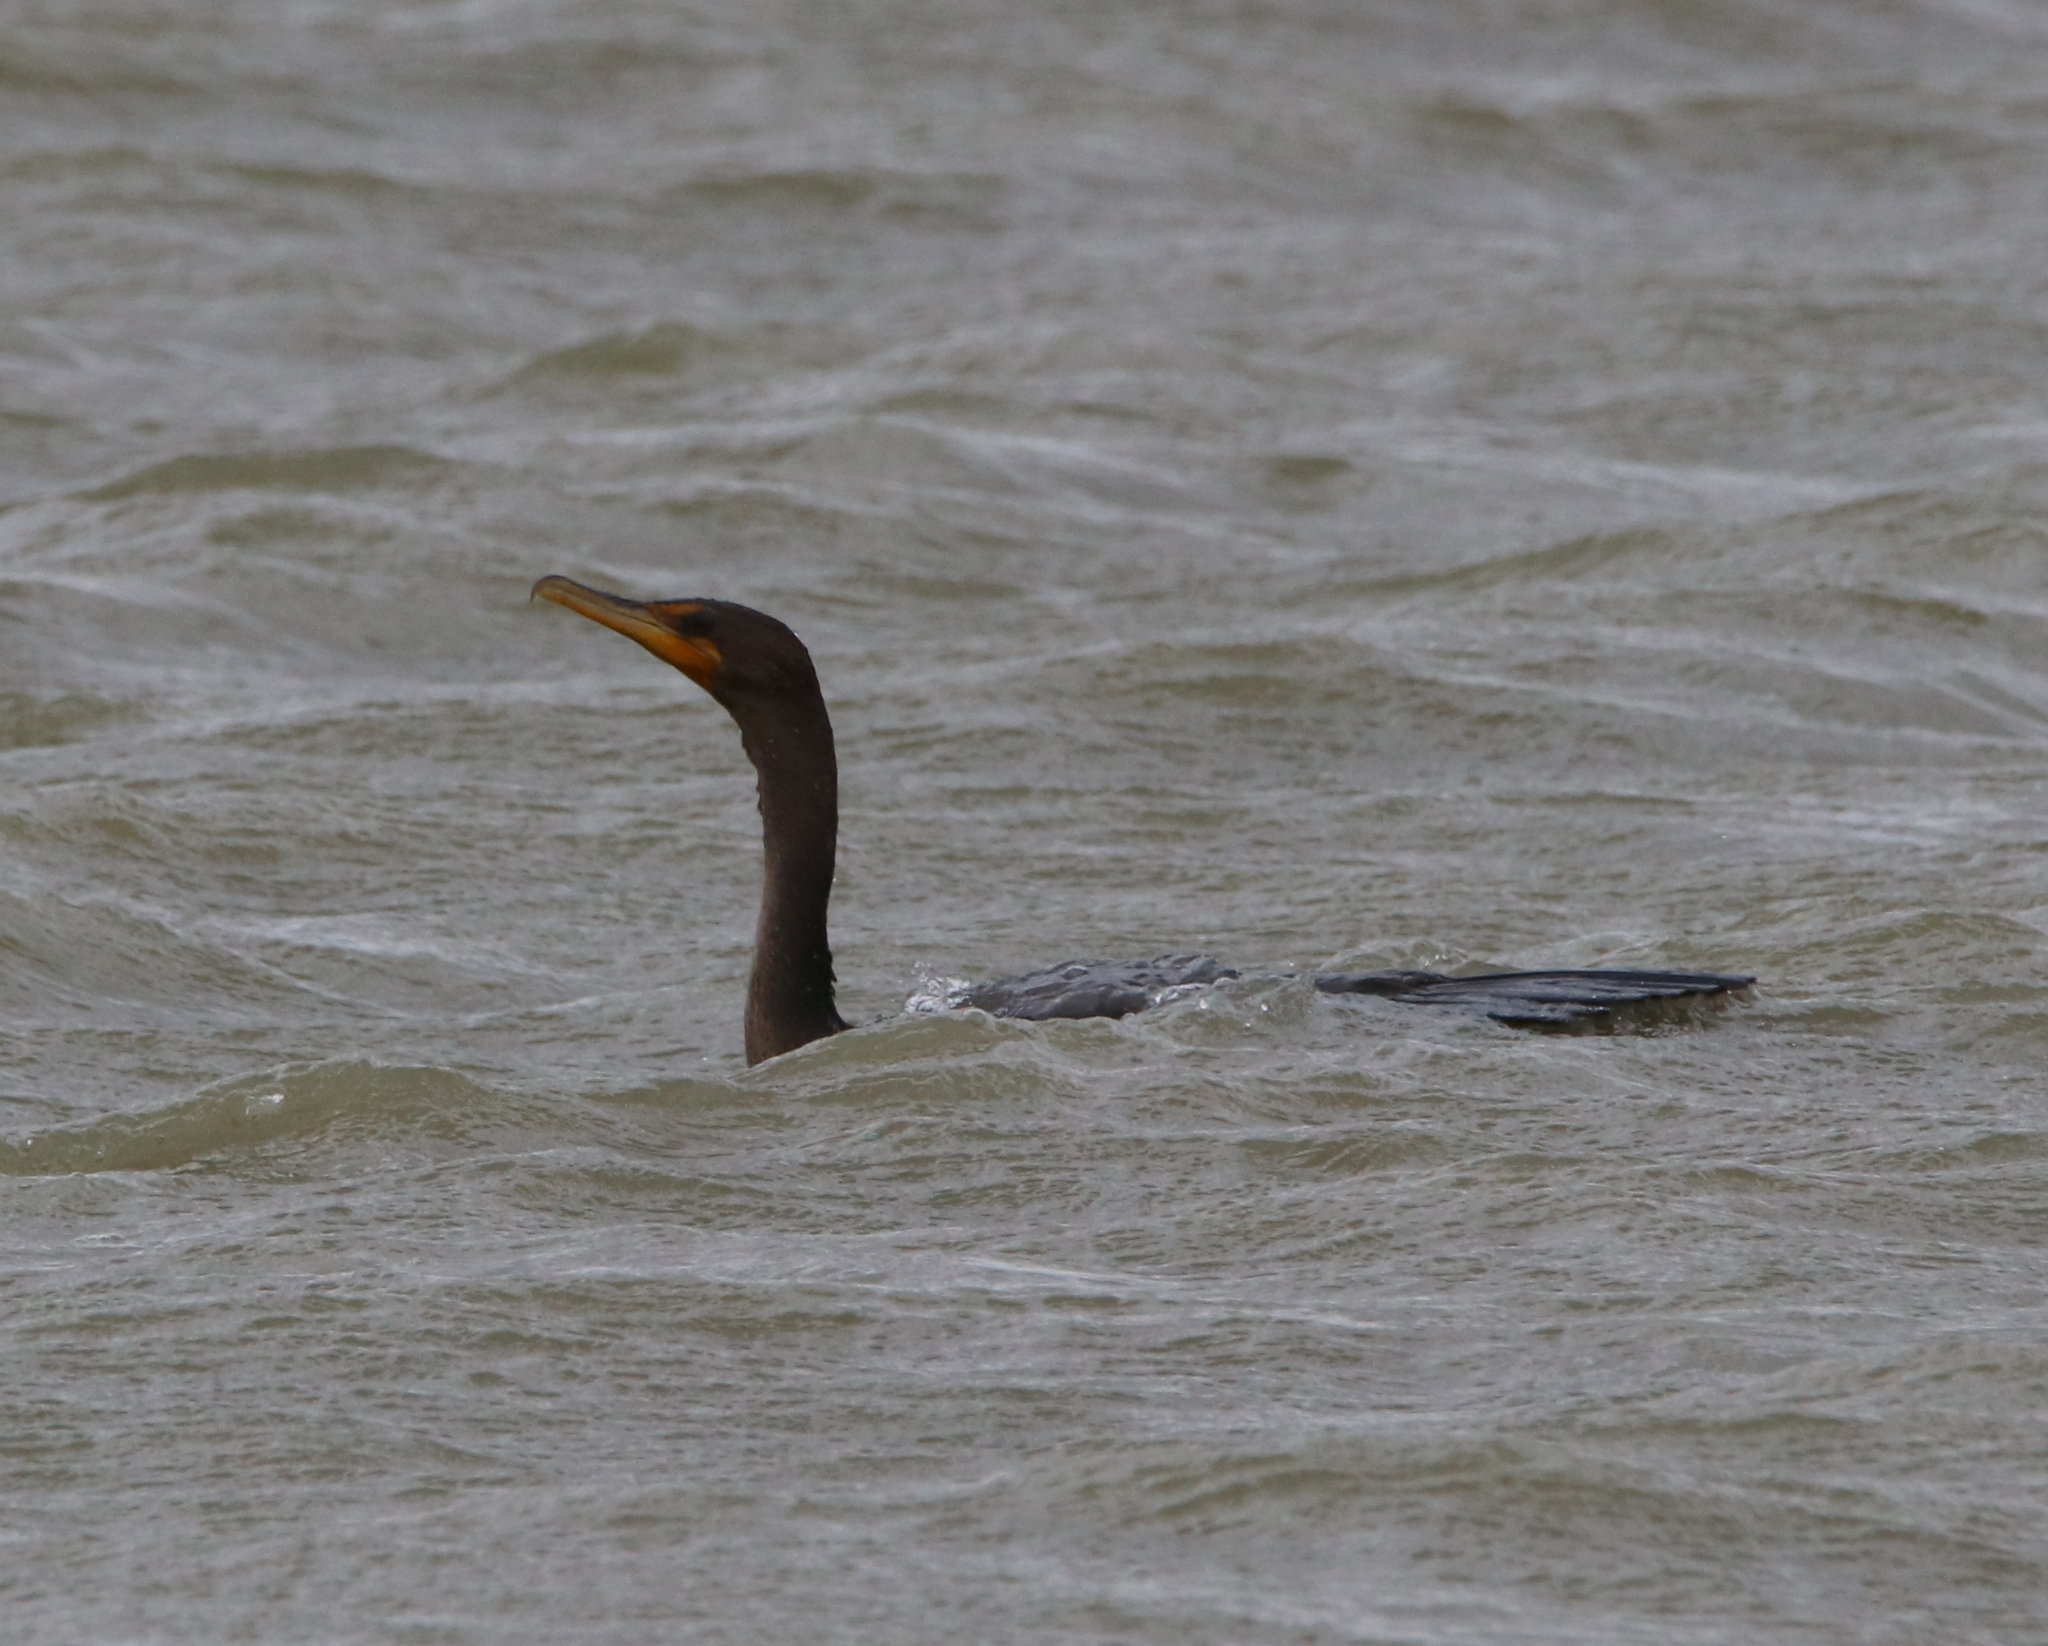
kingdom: Animalia
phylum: Chordata
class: Aves
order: Suliformes
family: Phalacrocoracidae
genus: Phalacrocorax
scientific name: Phalacrocorax auritus
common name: Double-crested cormorant
